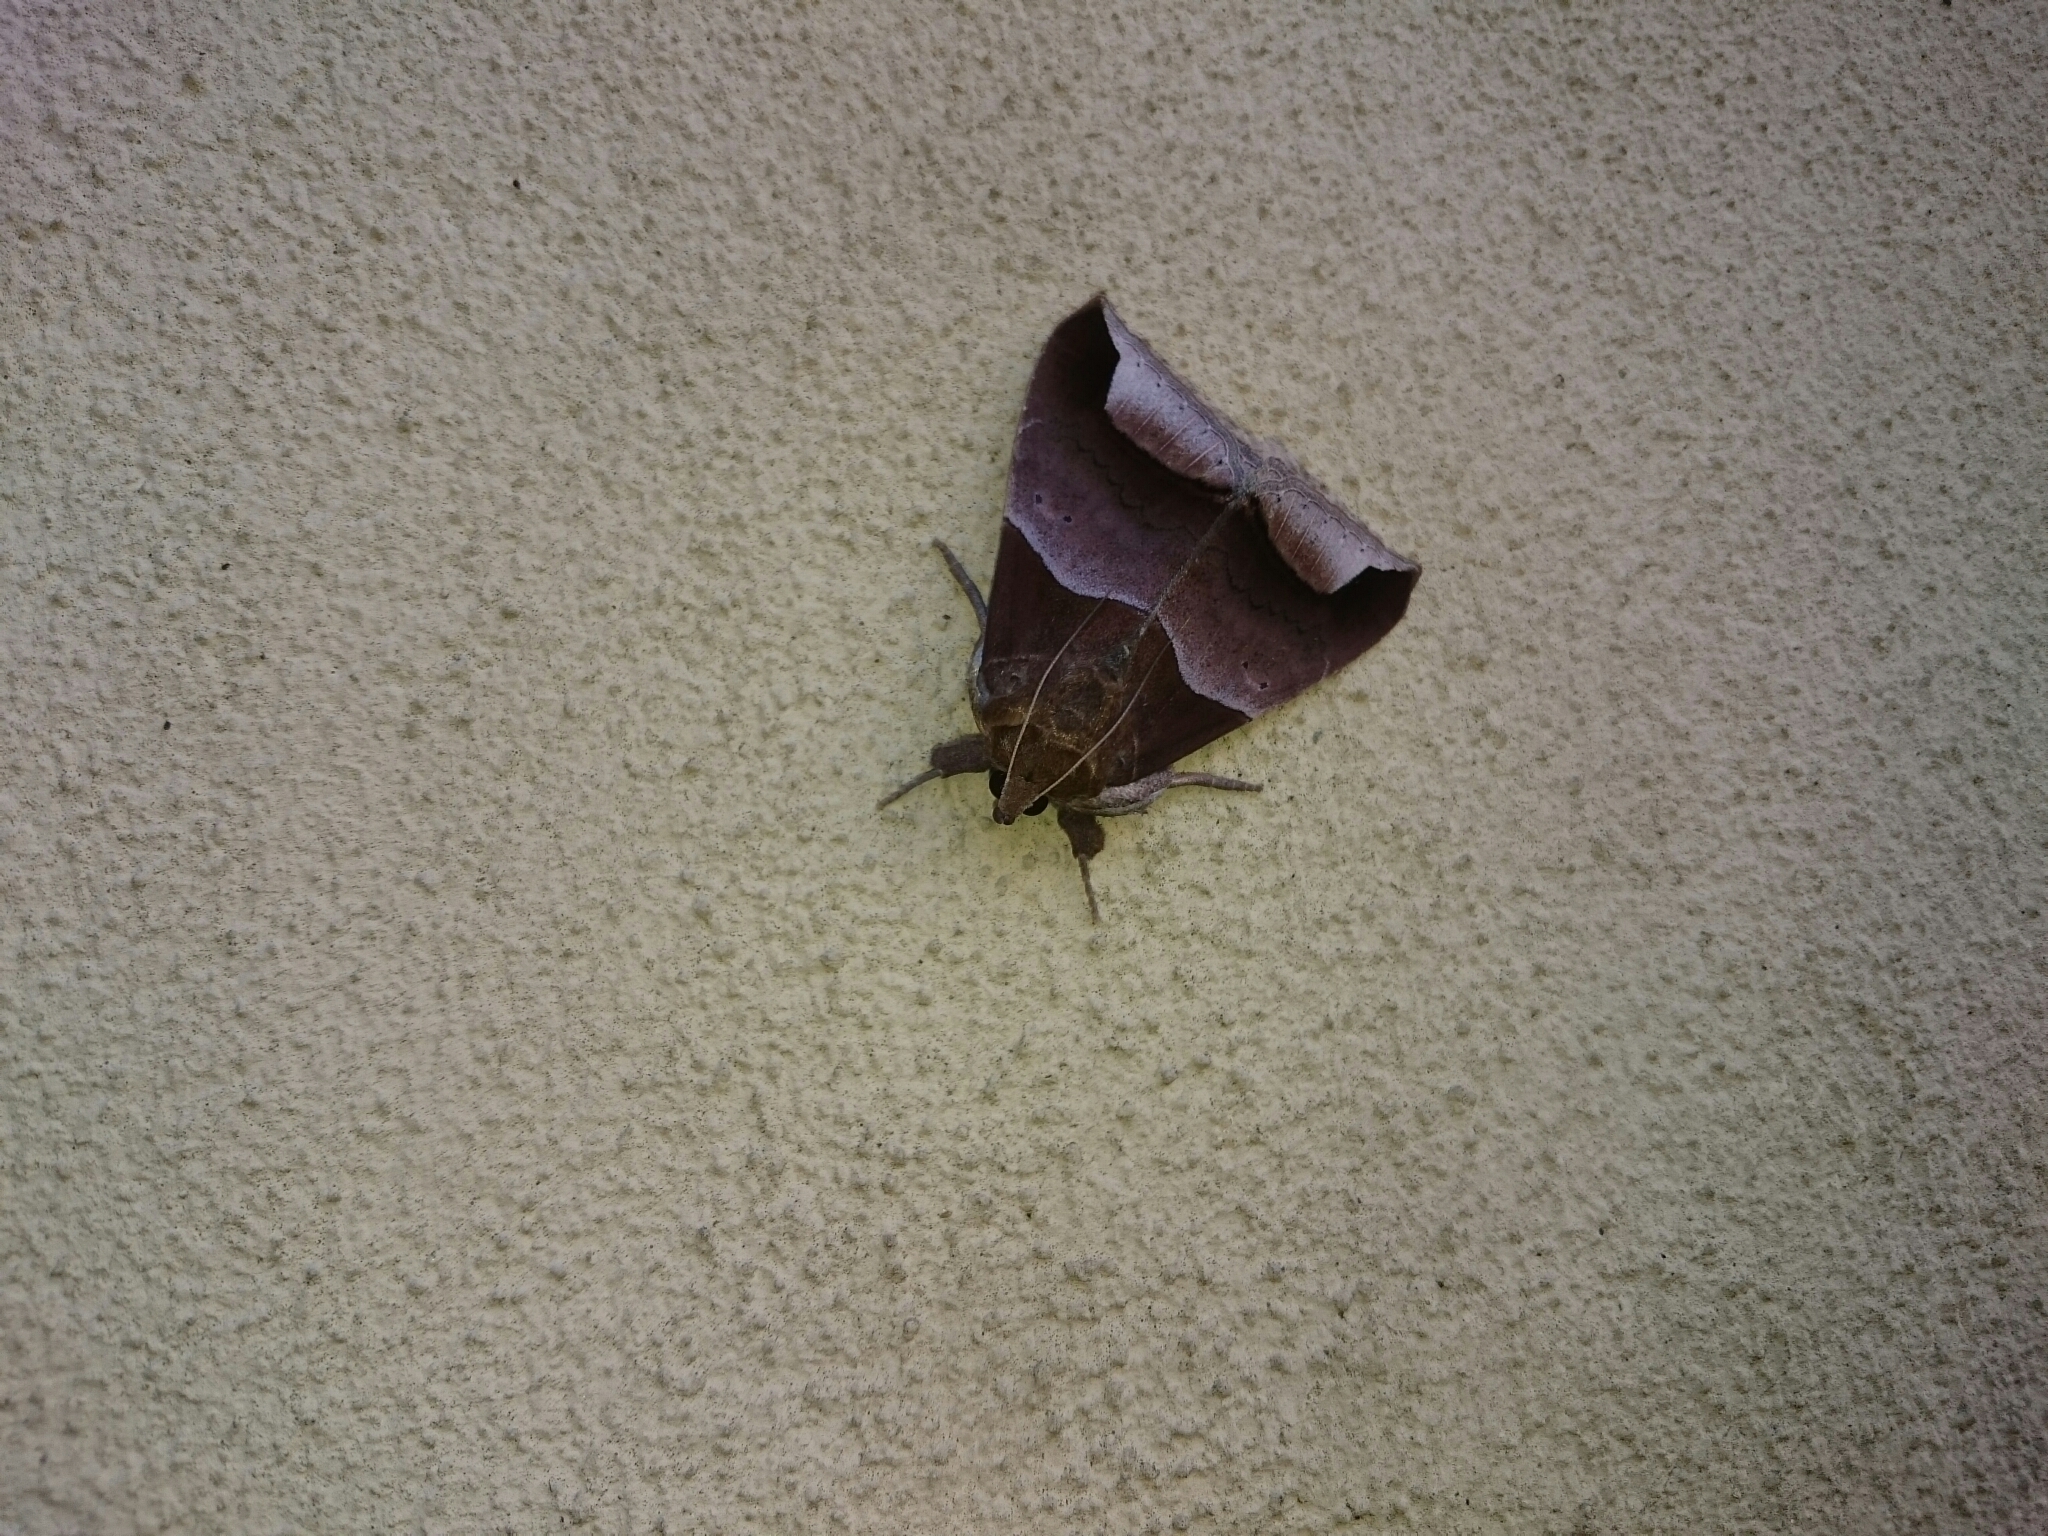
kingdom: Animalia
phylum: Arthropoda
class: Insecta
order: Lepidoptera
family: Erebidae
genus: Achaea
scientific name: Achaea echo
